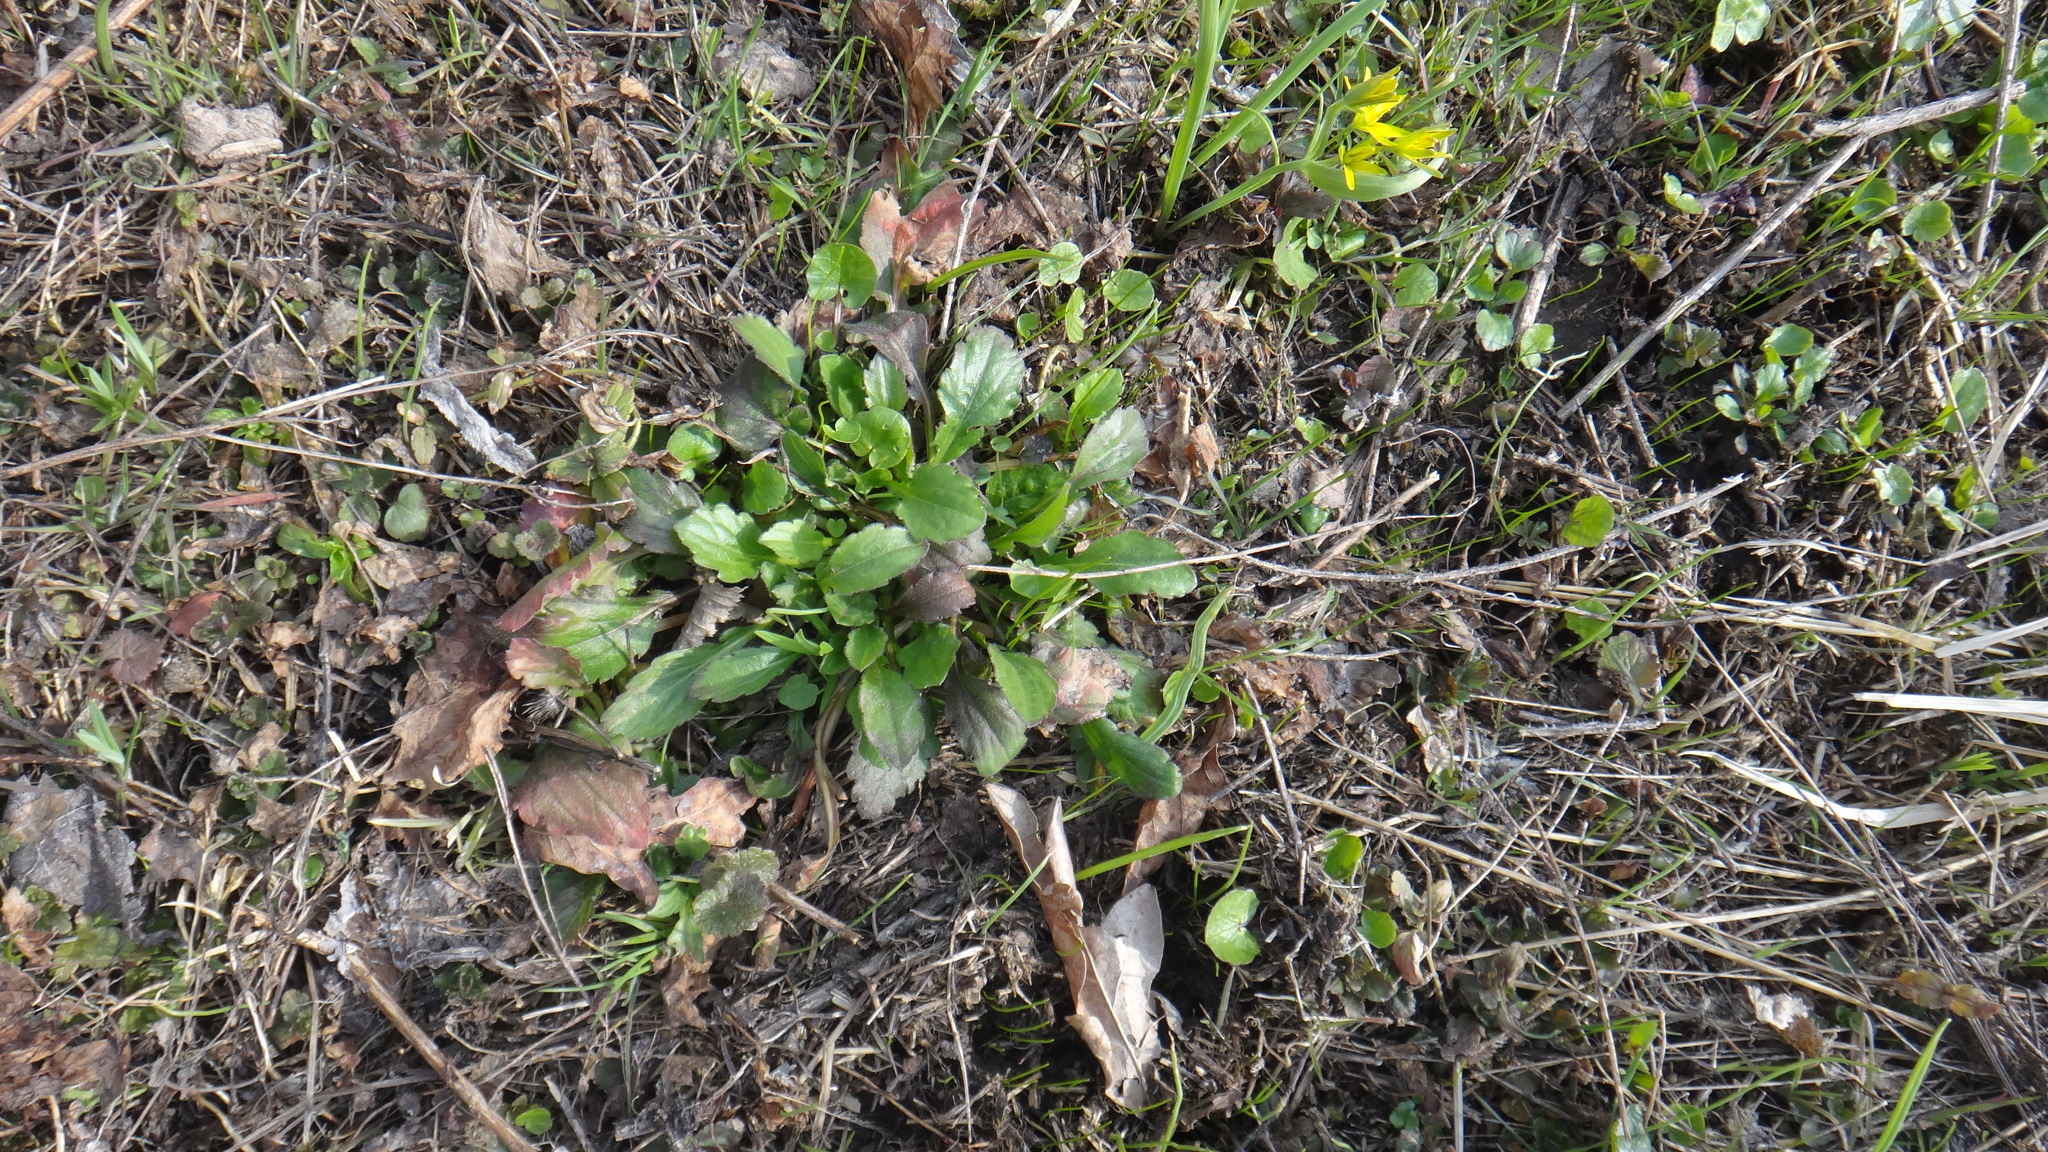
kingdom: Plantae
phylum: Tracheophyta
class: Magnoliopsida
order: Asterales
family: Asteraceae
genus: Erigeron
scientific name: Erigeron annuus
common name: Tall fleabane
